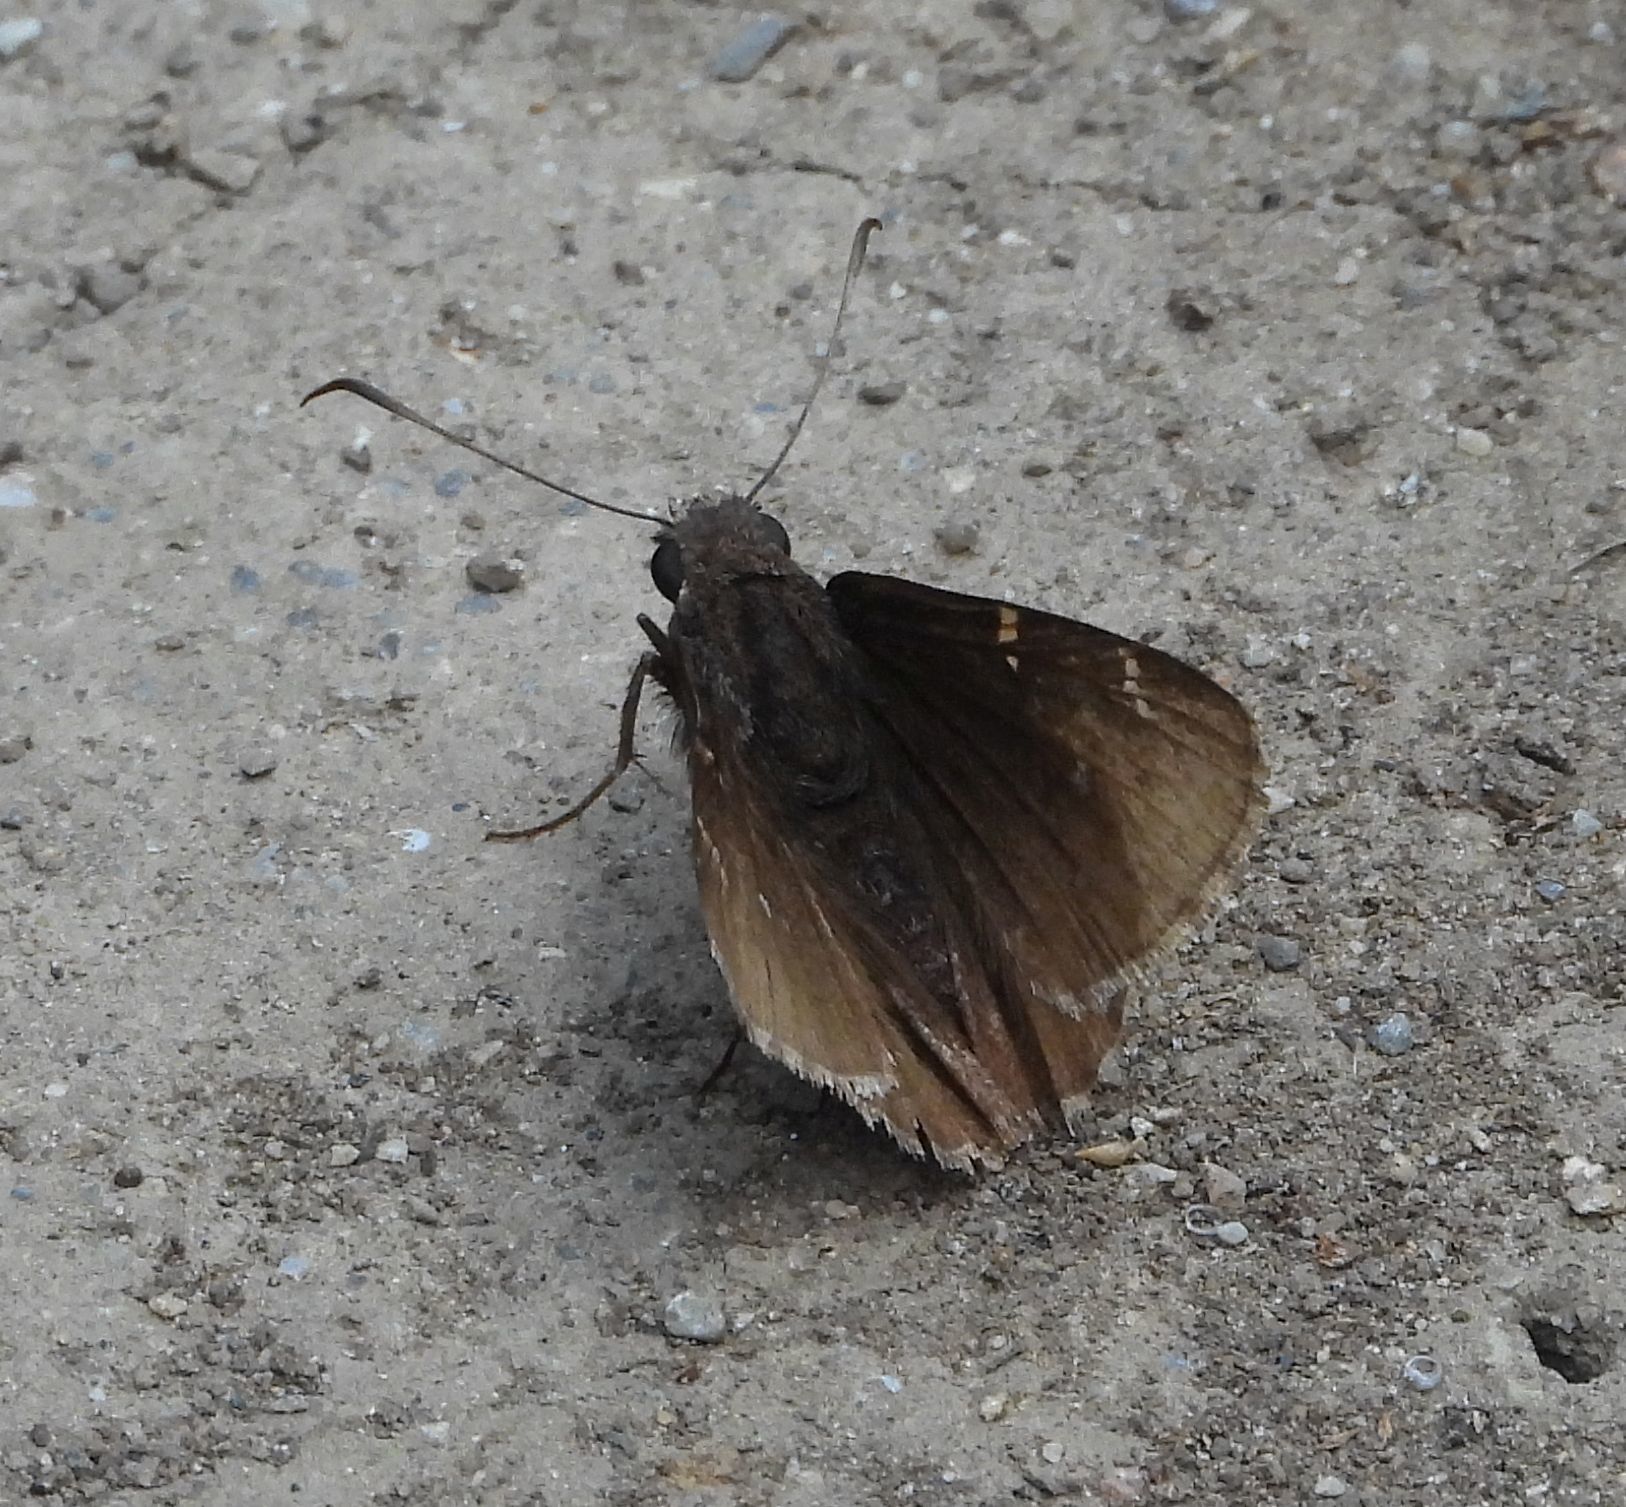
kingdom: Animalia
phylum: Arthropoda
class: Insecta
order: Lepidoptera
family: Hesperiidae
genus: Thorybes
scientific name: Thorybes pylades
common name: Northern cloudywing
